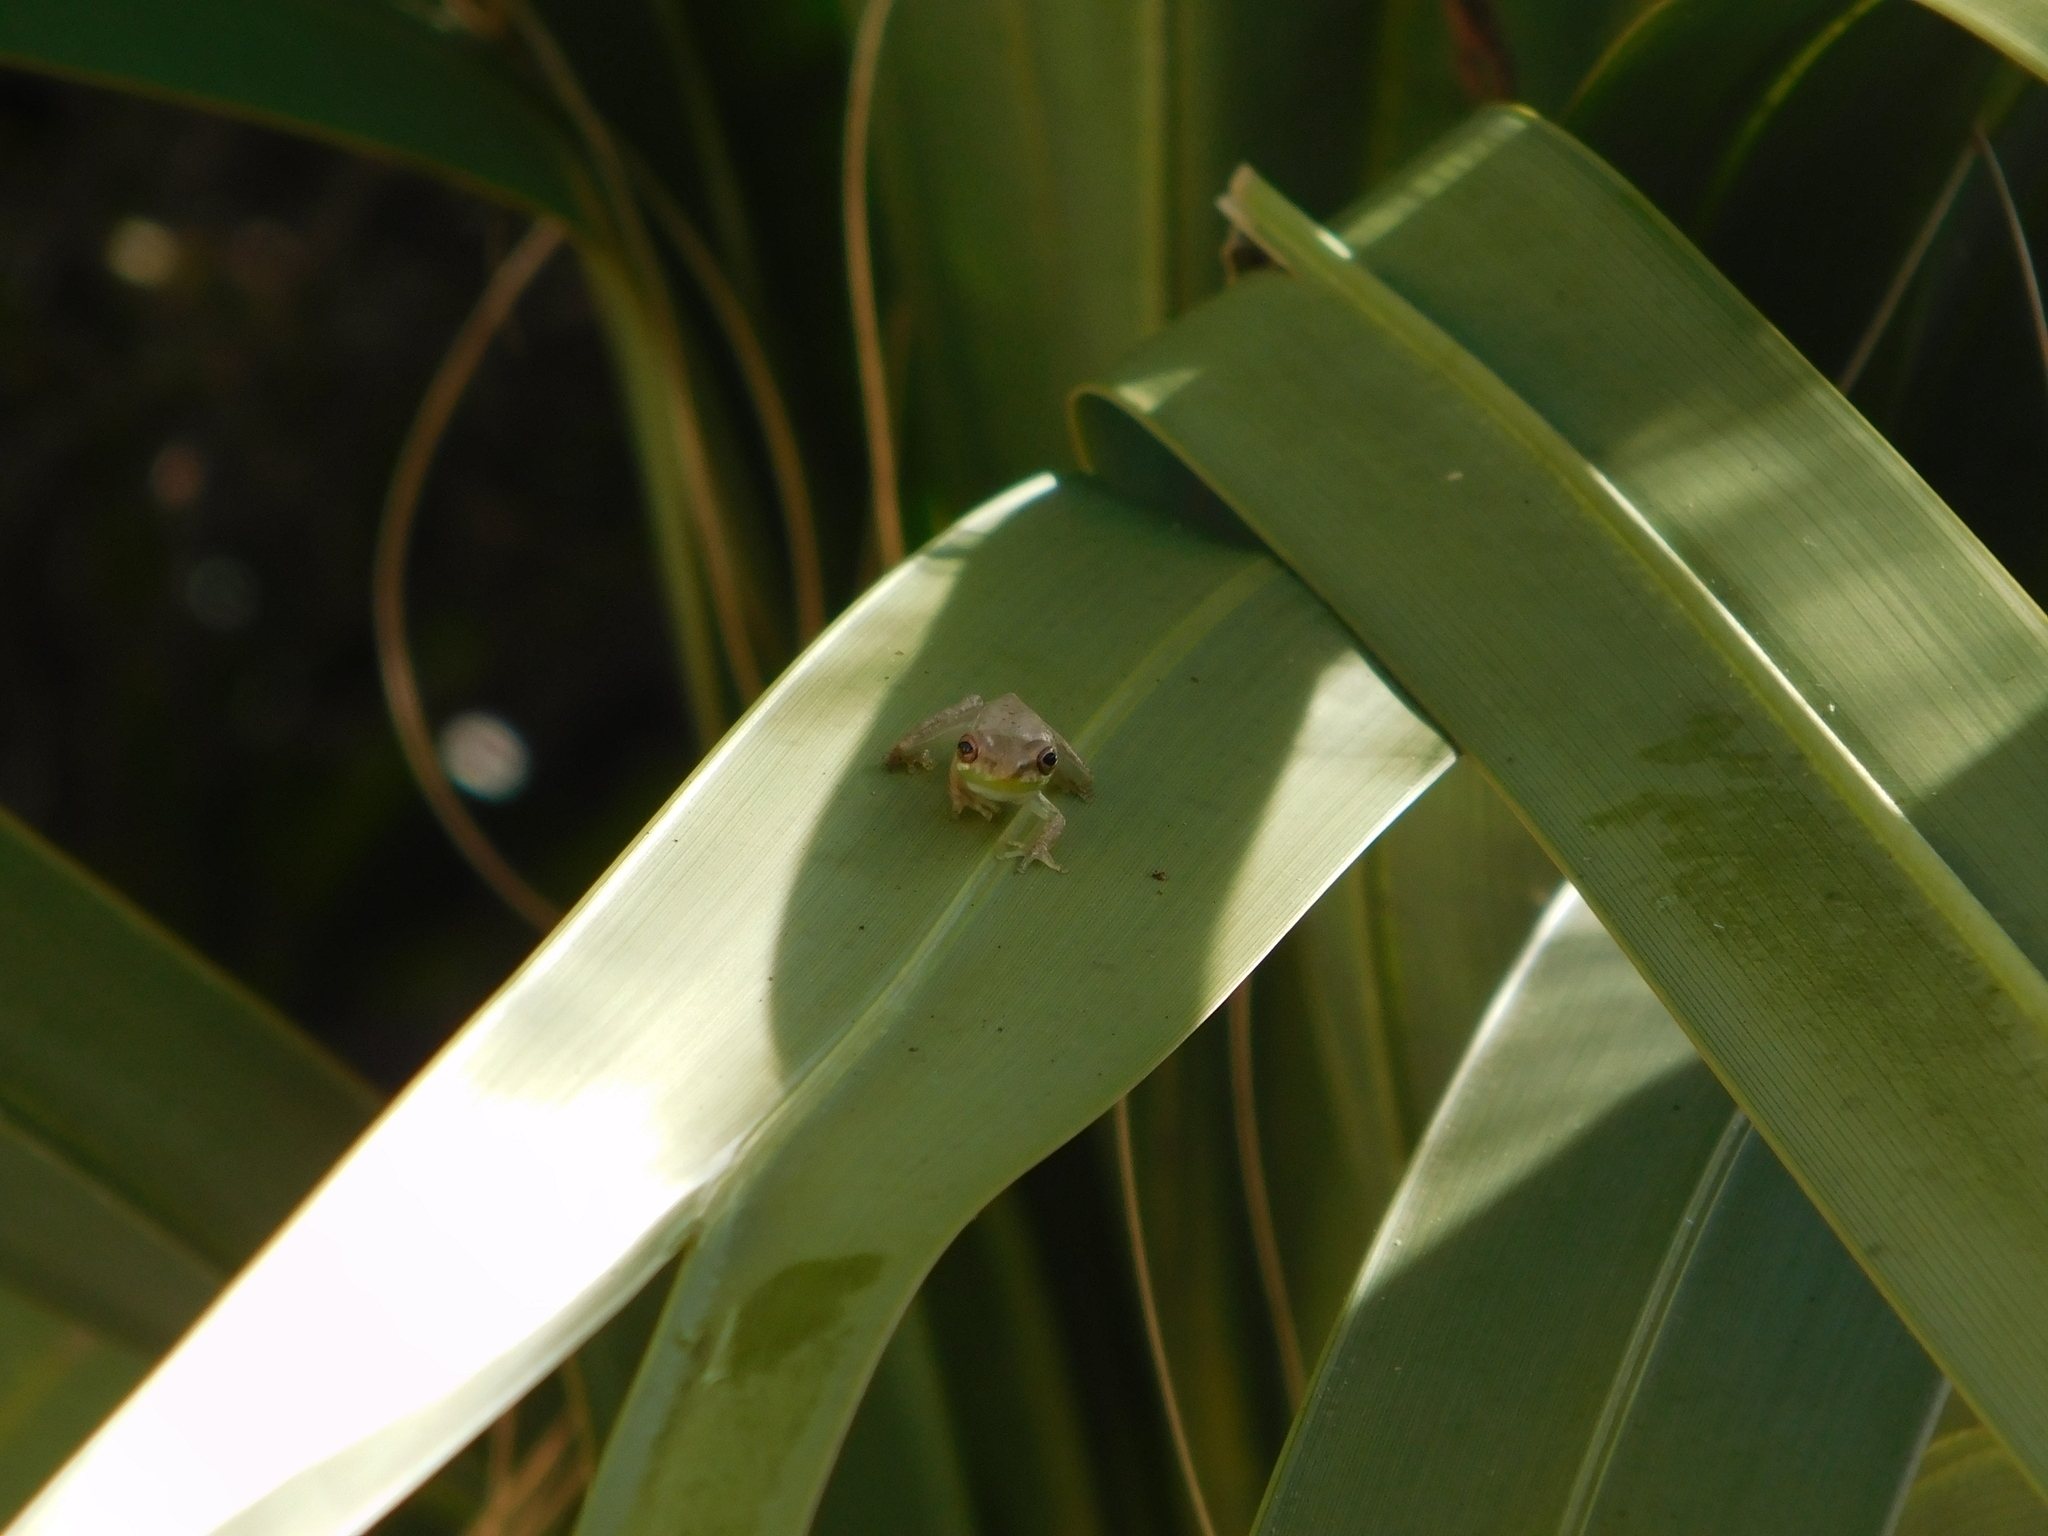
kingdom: Animalia
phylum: Chordata
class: Amphibia
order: Anura
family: Hylidae
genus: Osteopilus
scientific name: Osteopilus septentrionalis
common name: Cuban treefrog
